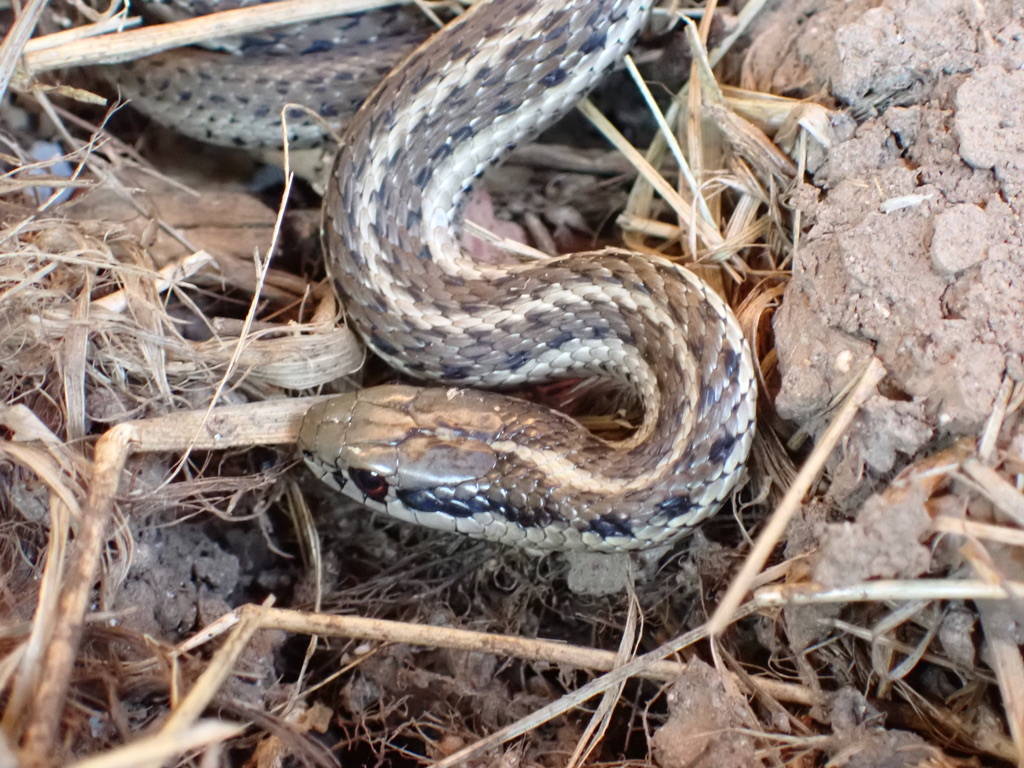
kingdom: Animalia
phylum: Chordata
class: Squamata
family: Colubridae
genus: Thamnophis
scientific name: Thamnophis ordinoides
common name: Northwestern garter snake
